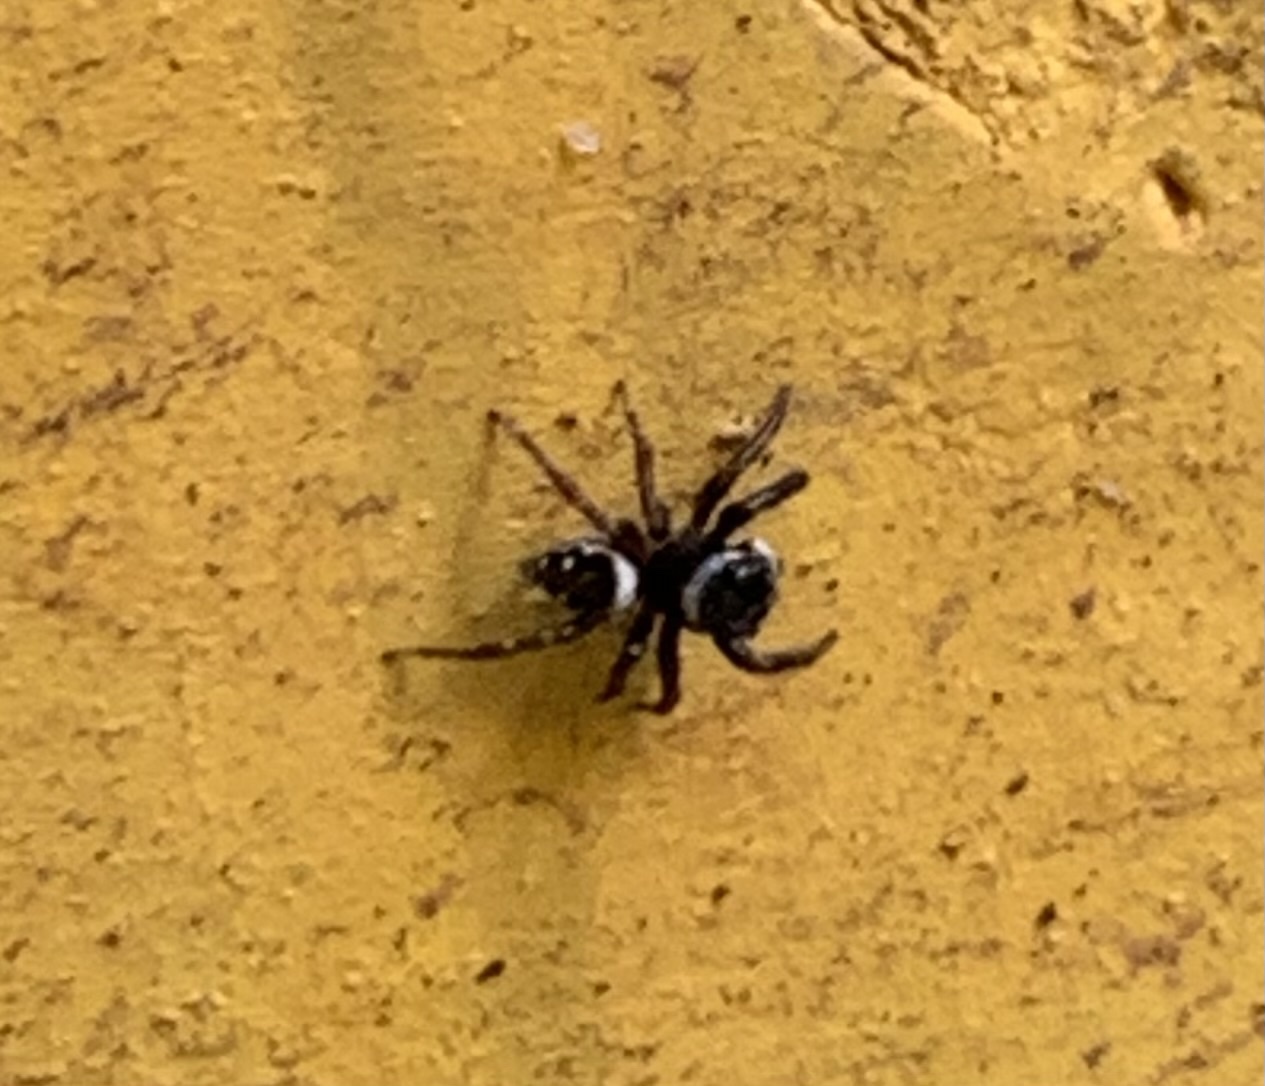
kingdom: Animalia
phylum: Arthropoda
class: Arachnida
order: Araneae
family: Salticidae
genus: Hasarius
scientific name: Hasarius adansoni
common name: Jumping spider
